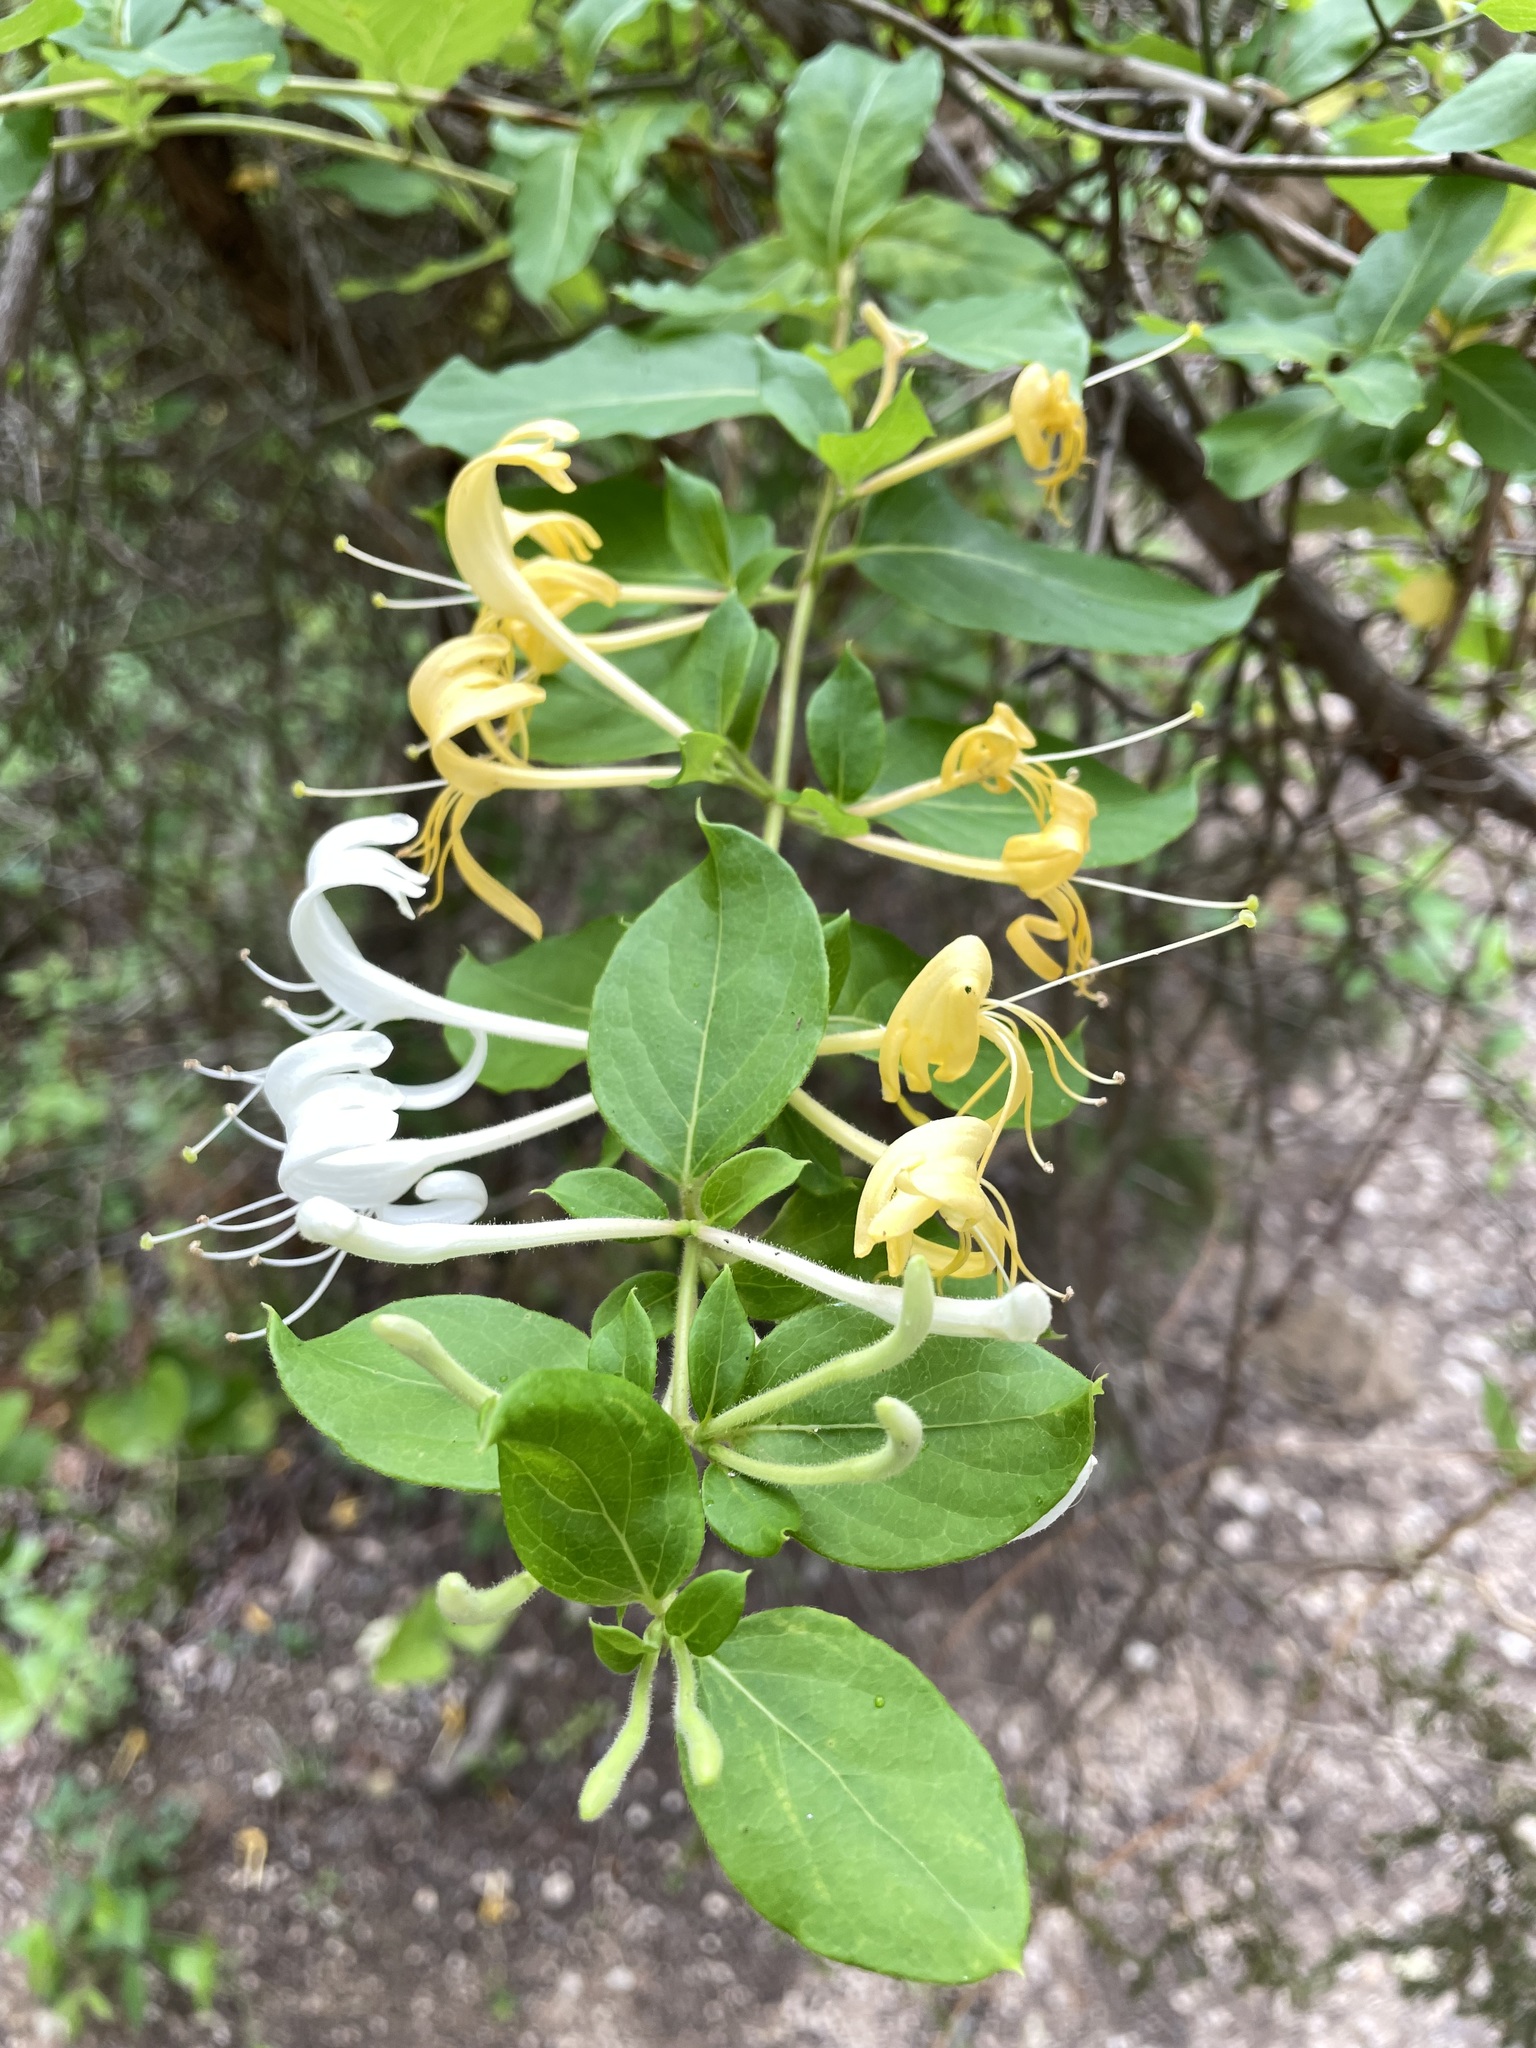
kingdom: Plantae
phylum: Tracheophyta
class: Magnoliopsida
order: Dipsacales
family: Caprifoliaceae
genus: Lonicera
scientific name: Lonicera japonica
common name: Japanese honeysuckle
